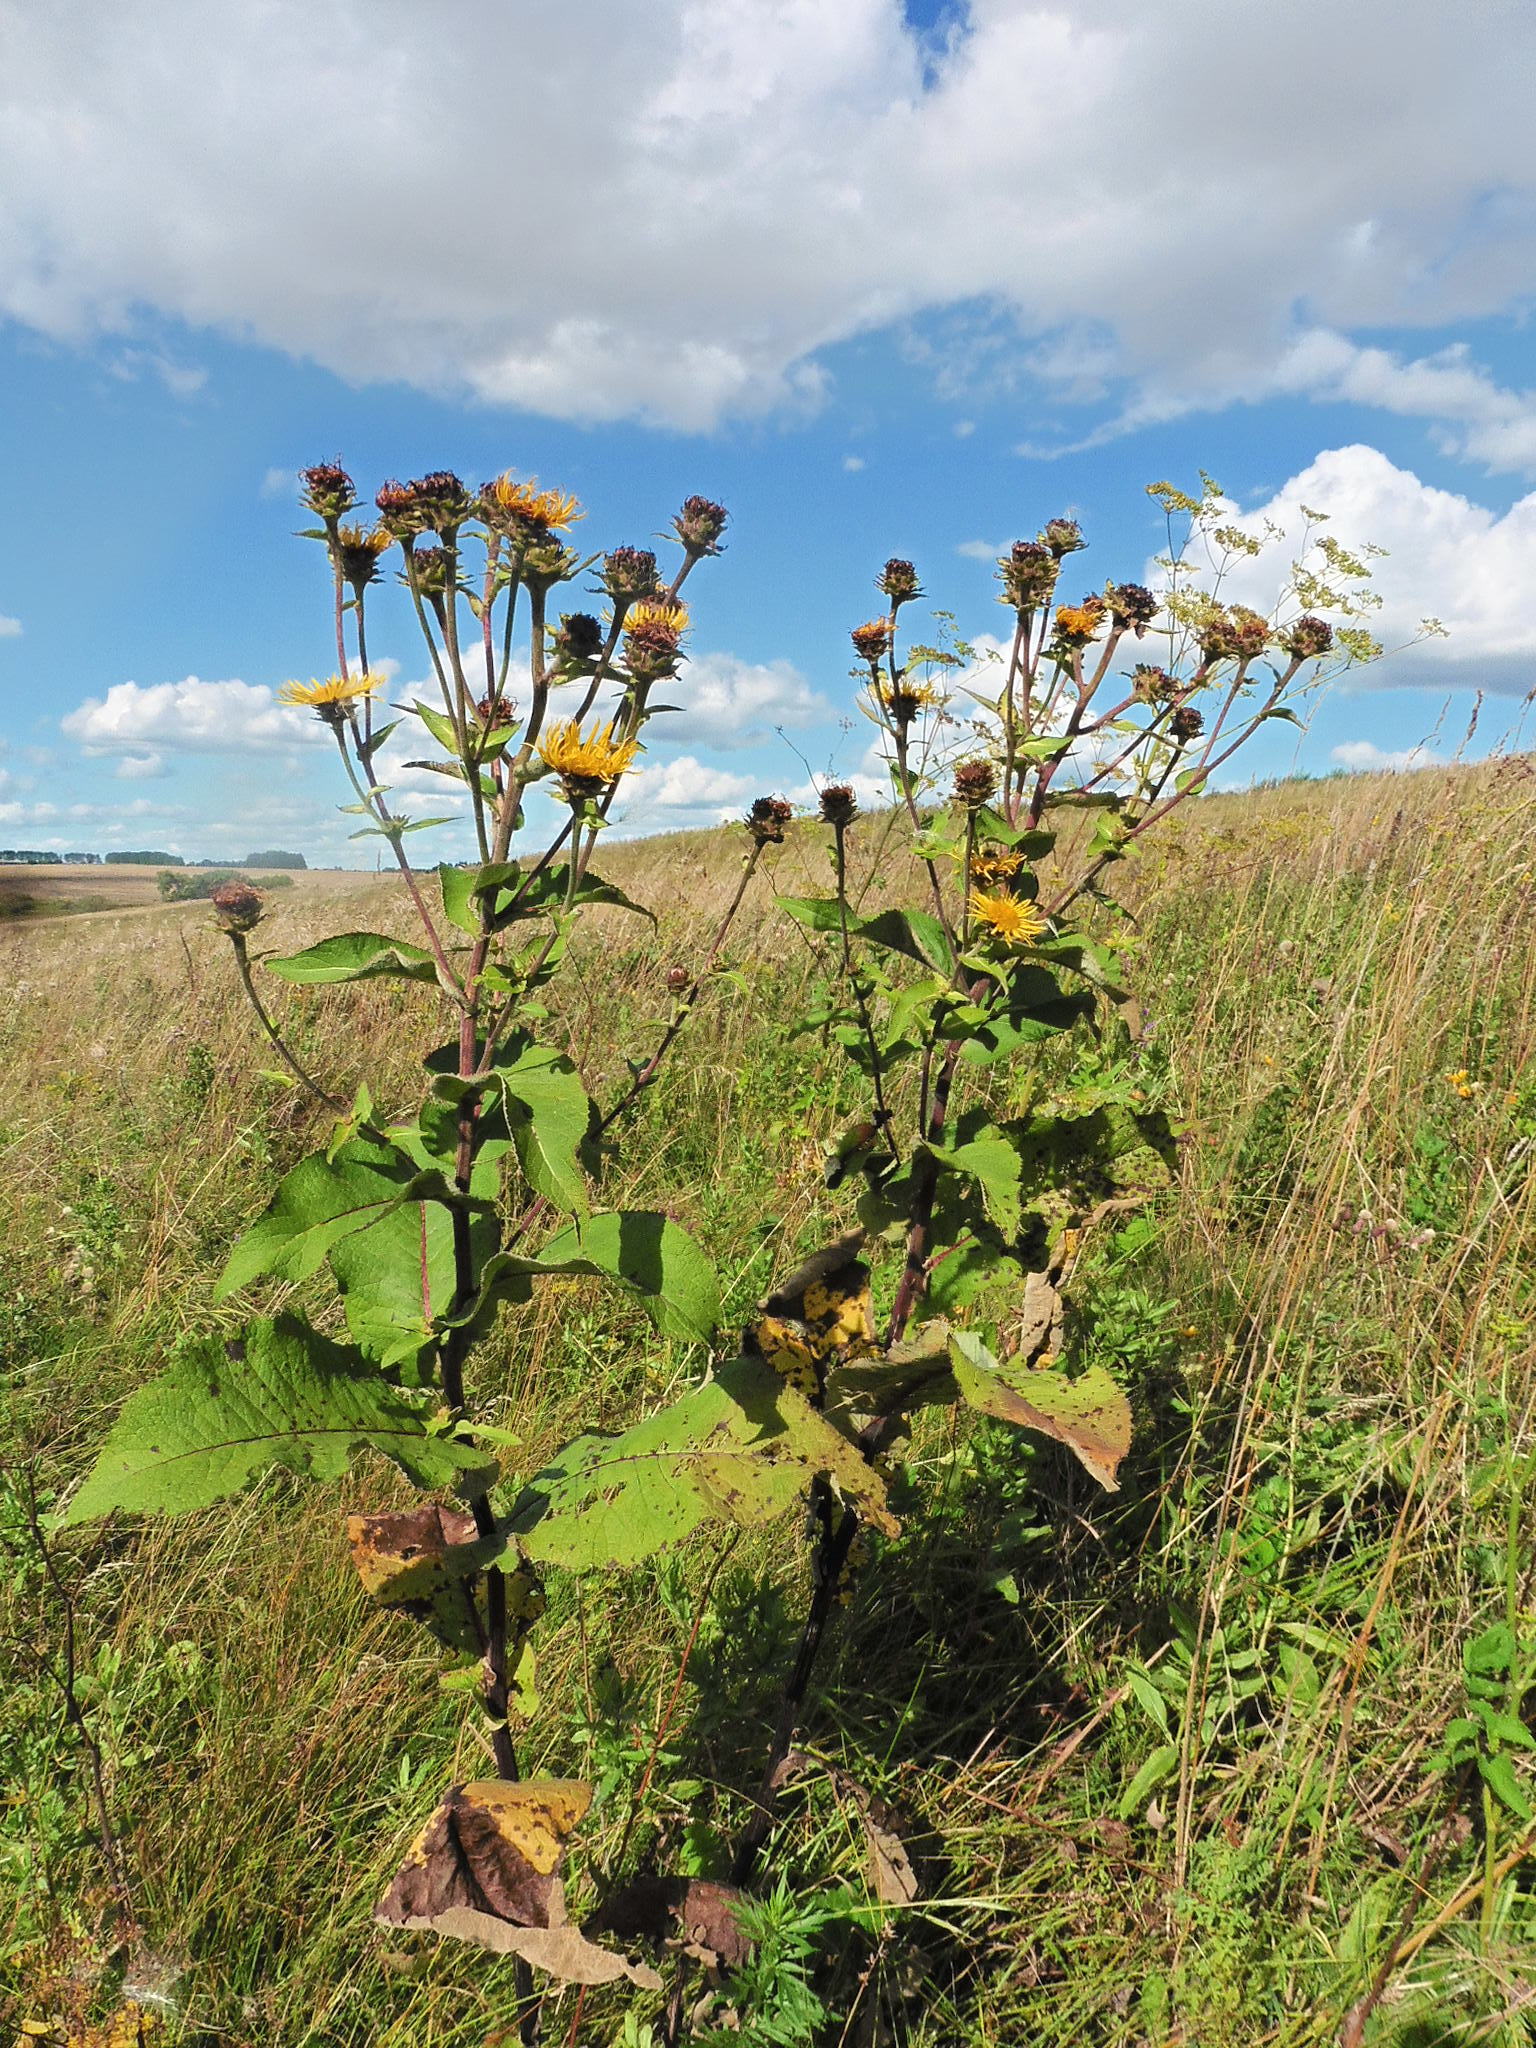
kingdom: Plantae
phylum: Tracheophyta
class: Magnoliopsida
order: Asterales
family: Asteraceae
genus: Inula
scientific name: Inula helenium
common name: Elecampane
